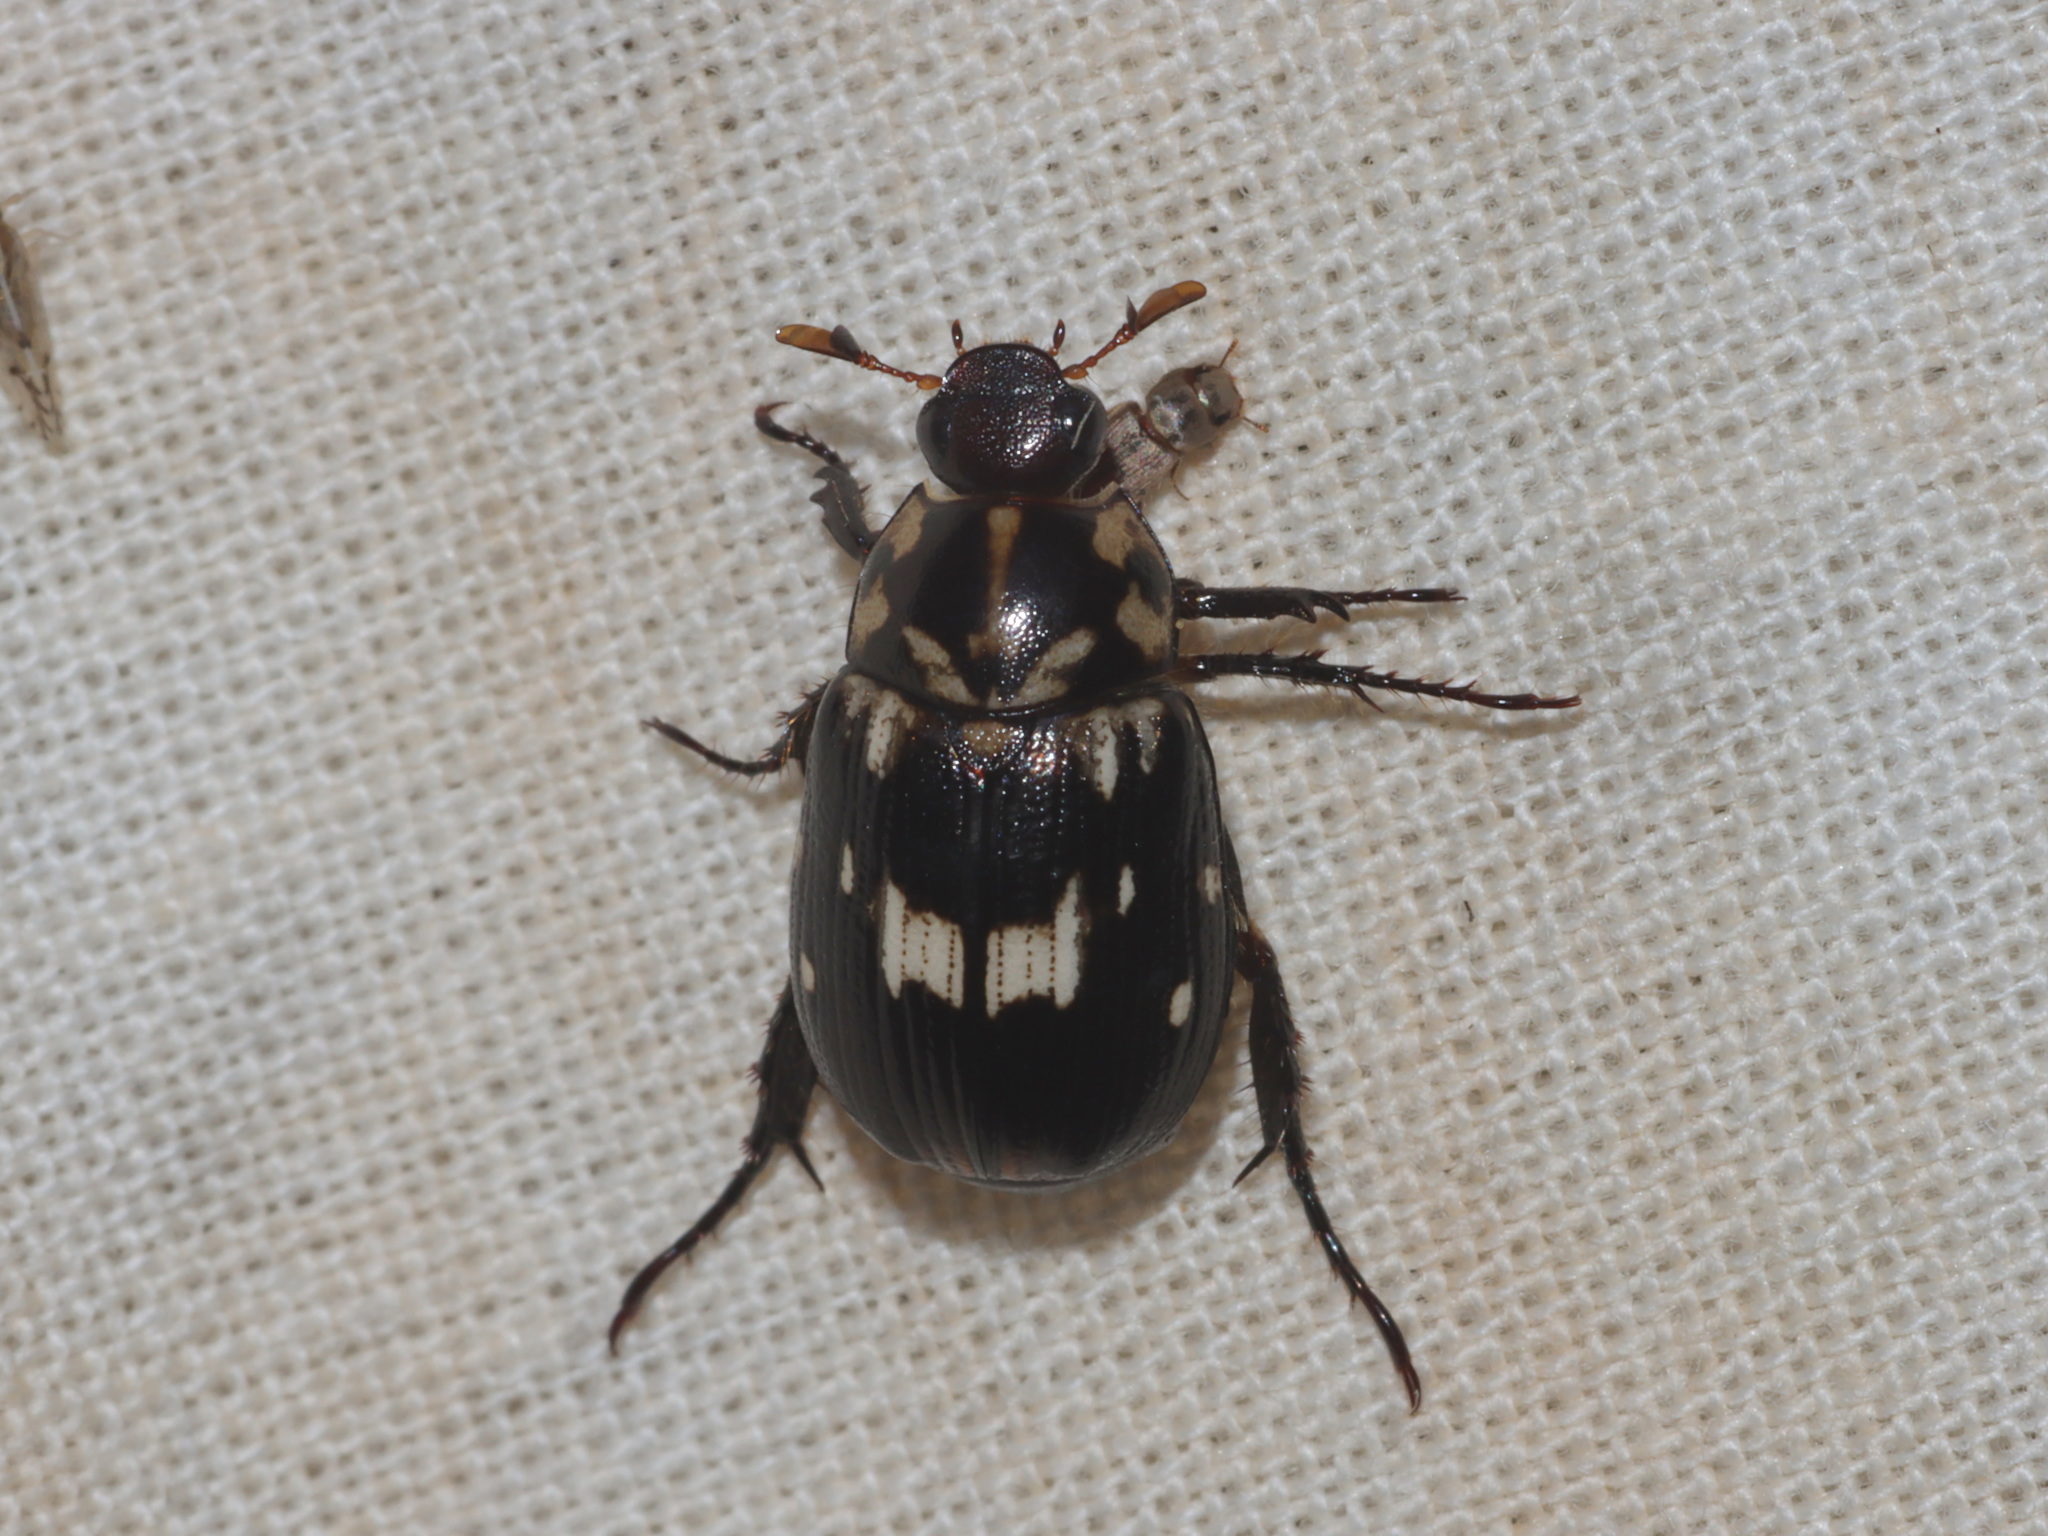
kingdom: Animalia
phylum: Arthropoda
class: Insecta
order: Coleoptera
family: Scarabaeidae
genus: Anomala
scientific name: Anomala blaisei
